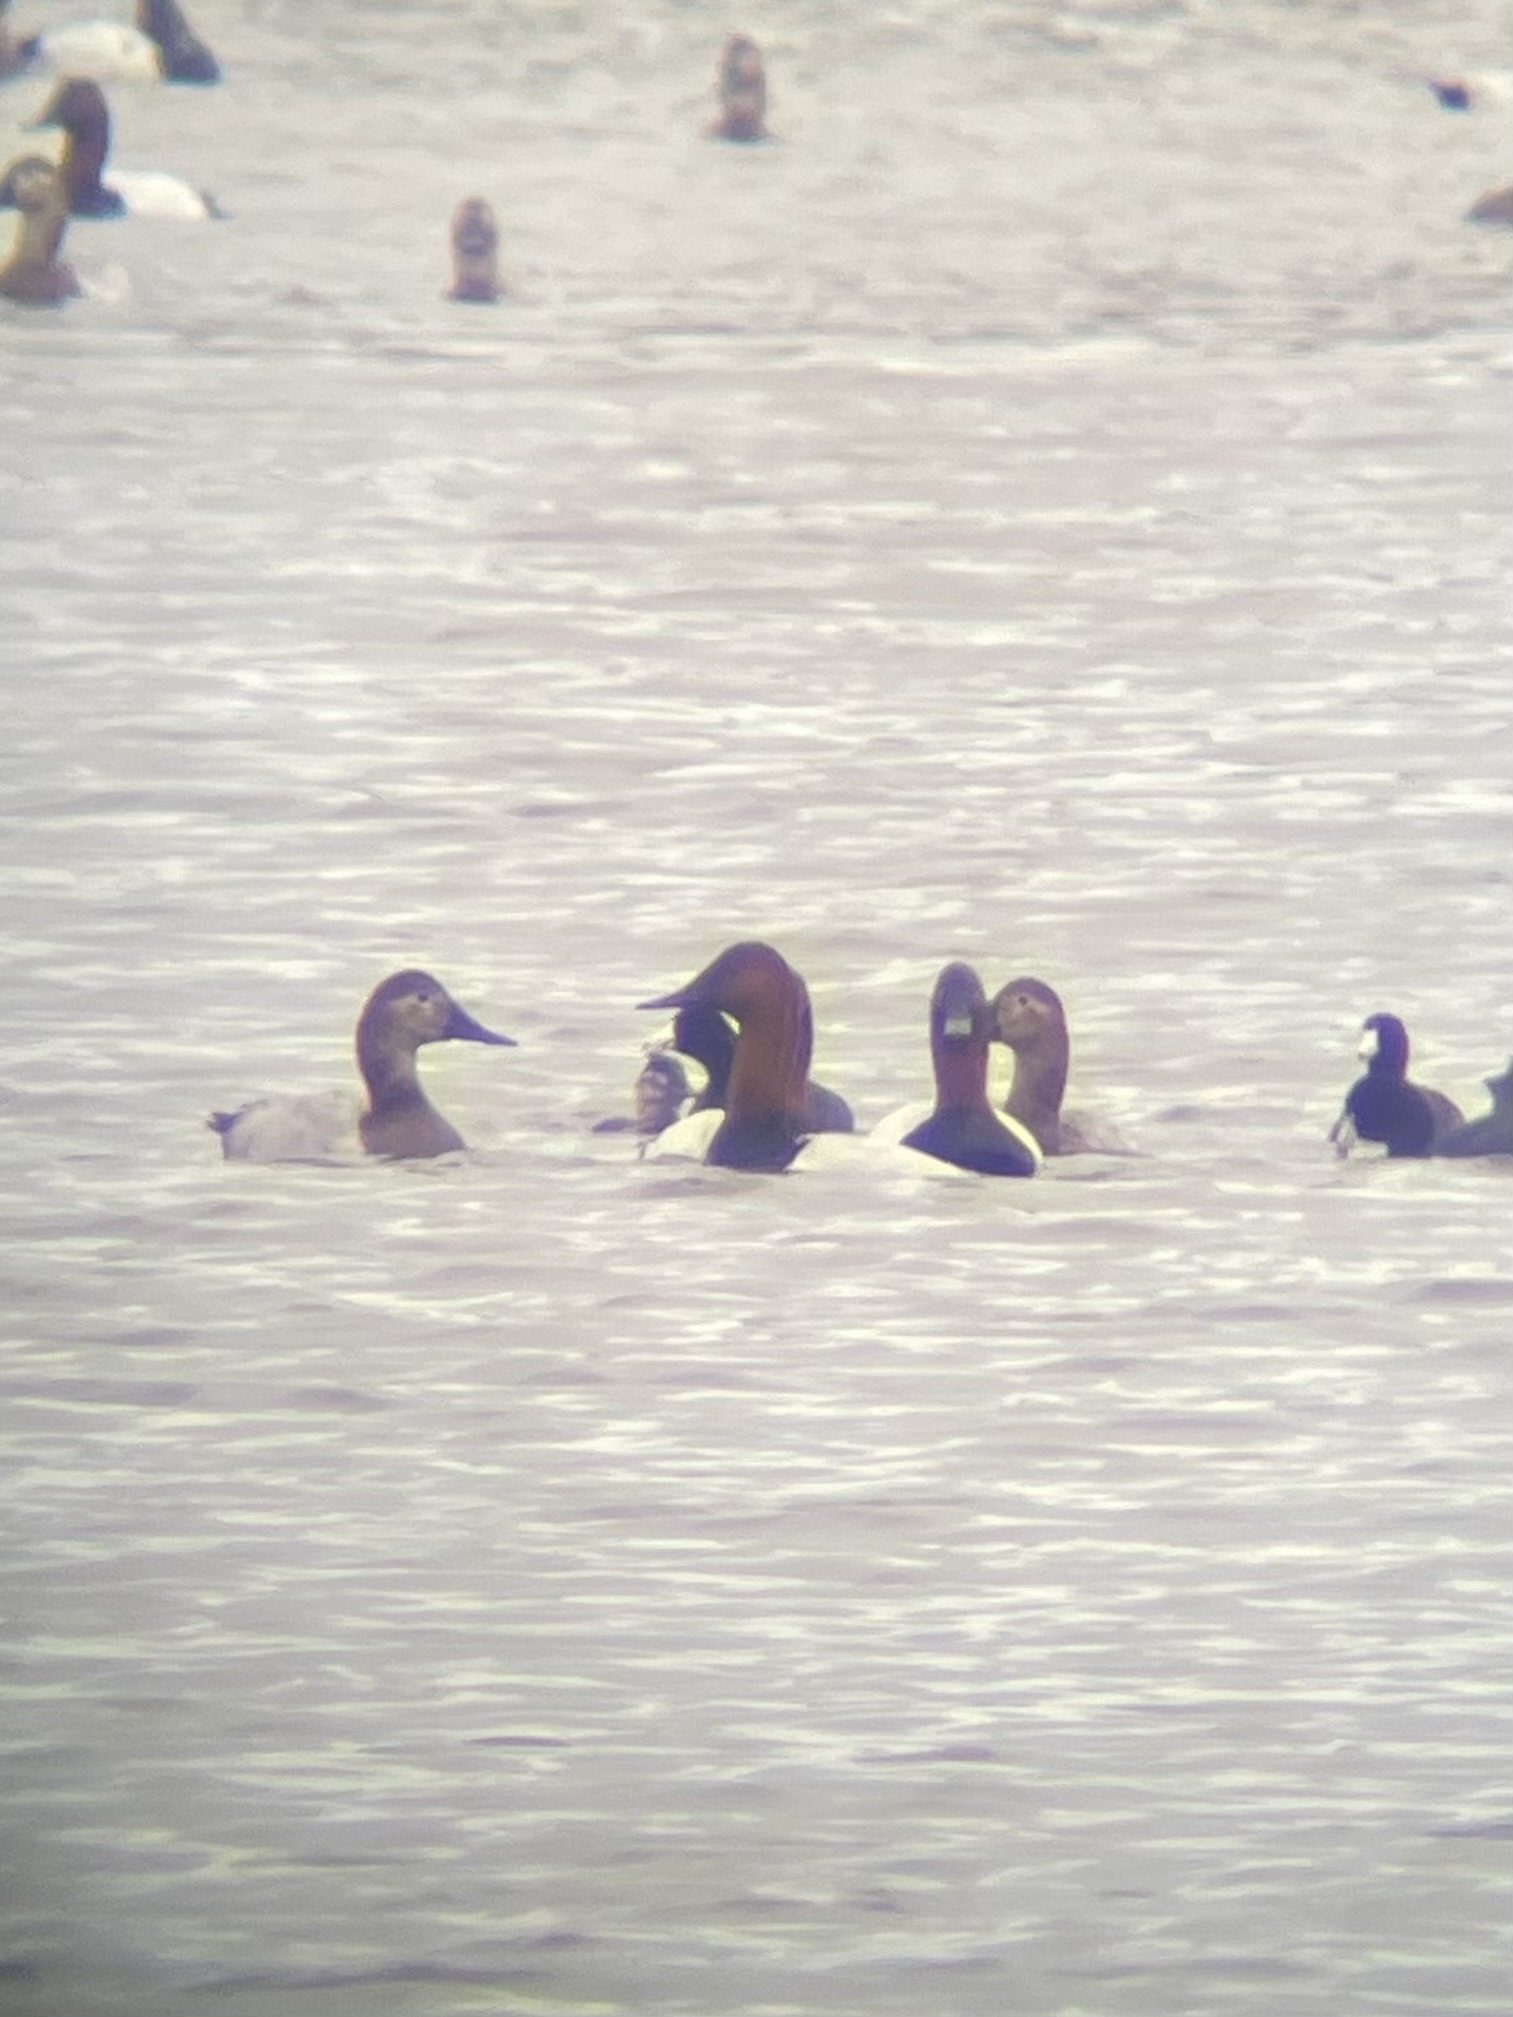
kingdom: Animalia
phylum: Chordata
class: Aves
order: Anseriformes
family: Anatidae
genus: Aythya
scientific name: Aythya valisineria
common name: Canvasback
